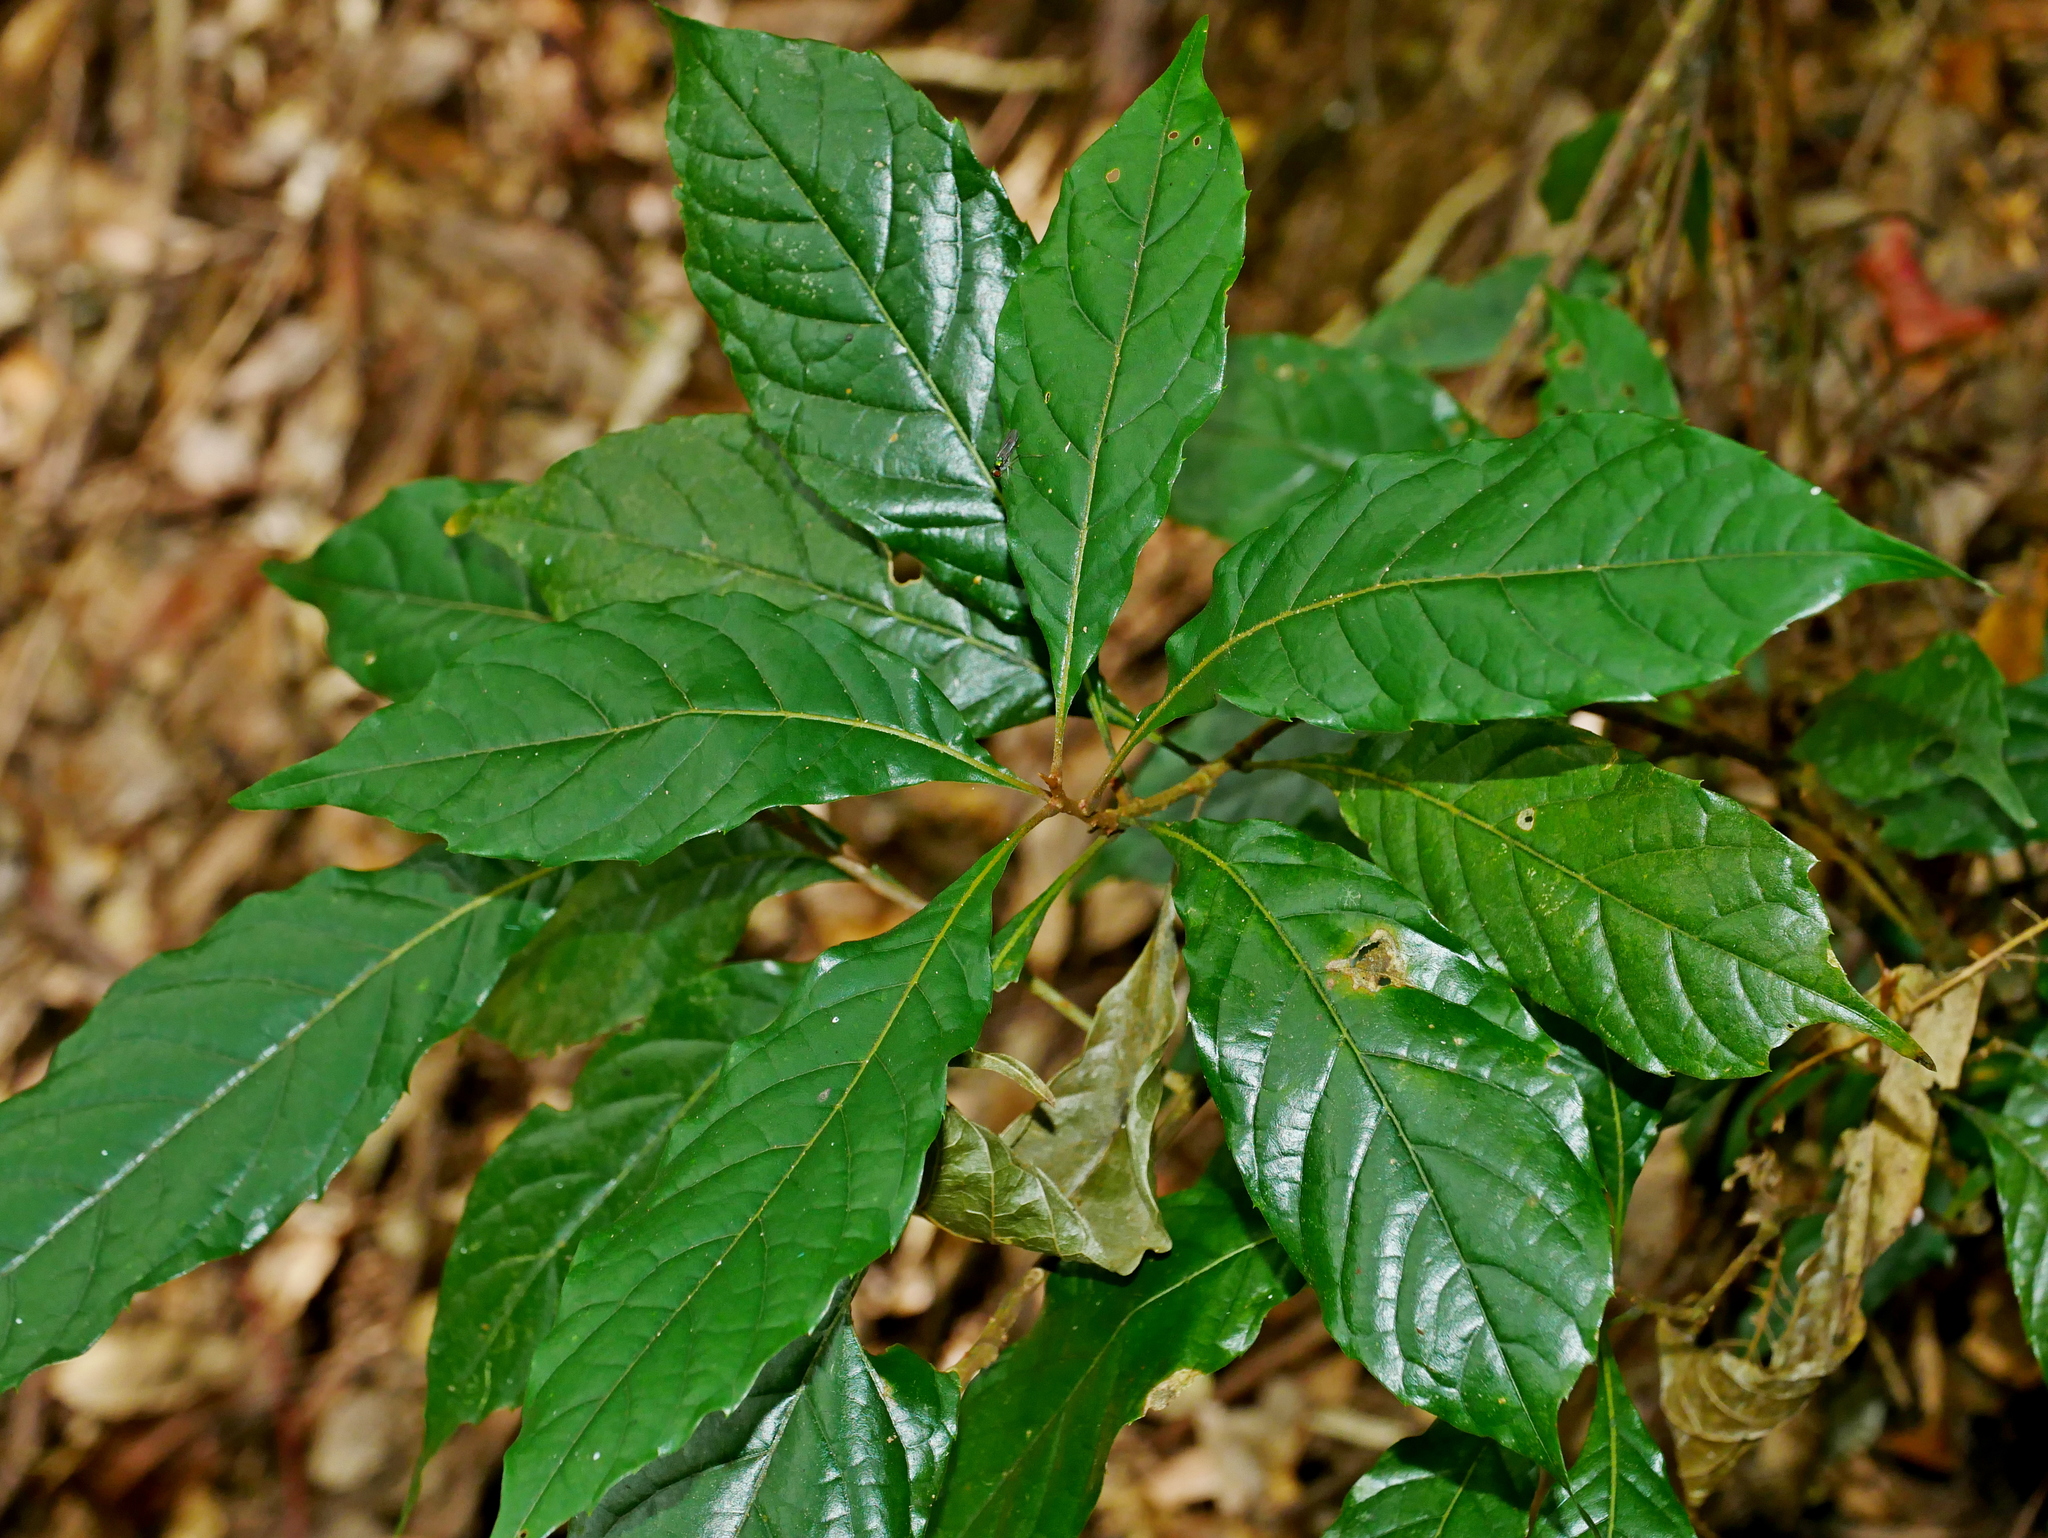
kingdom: Plantae
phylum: Tracheophyta
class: Magnoliopsida
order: Proteales
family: Sabiaceae
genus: Meliosma
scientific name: Meliosma callicarpifolia
